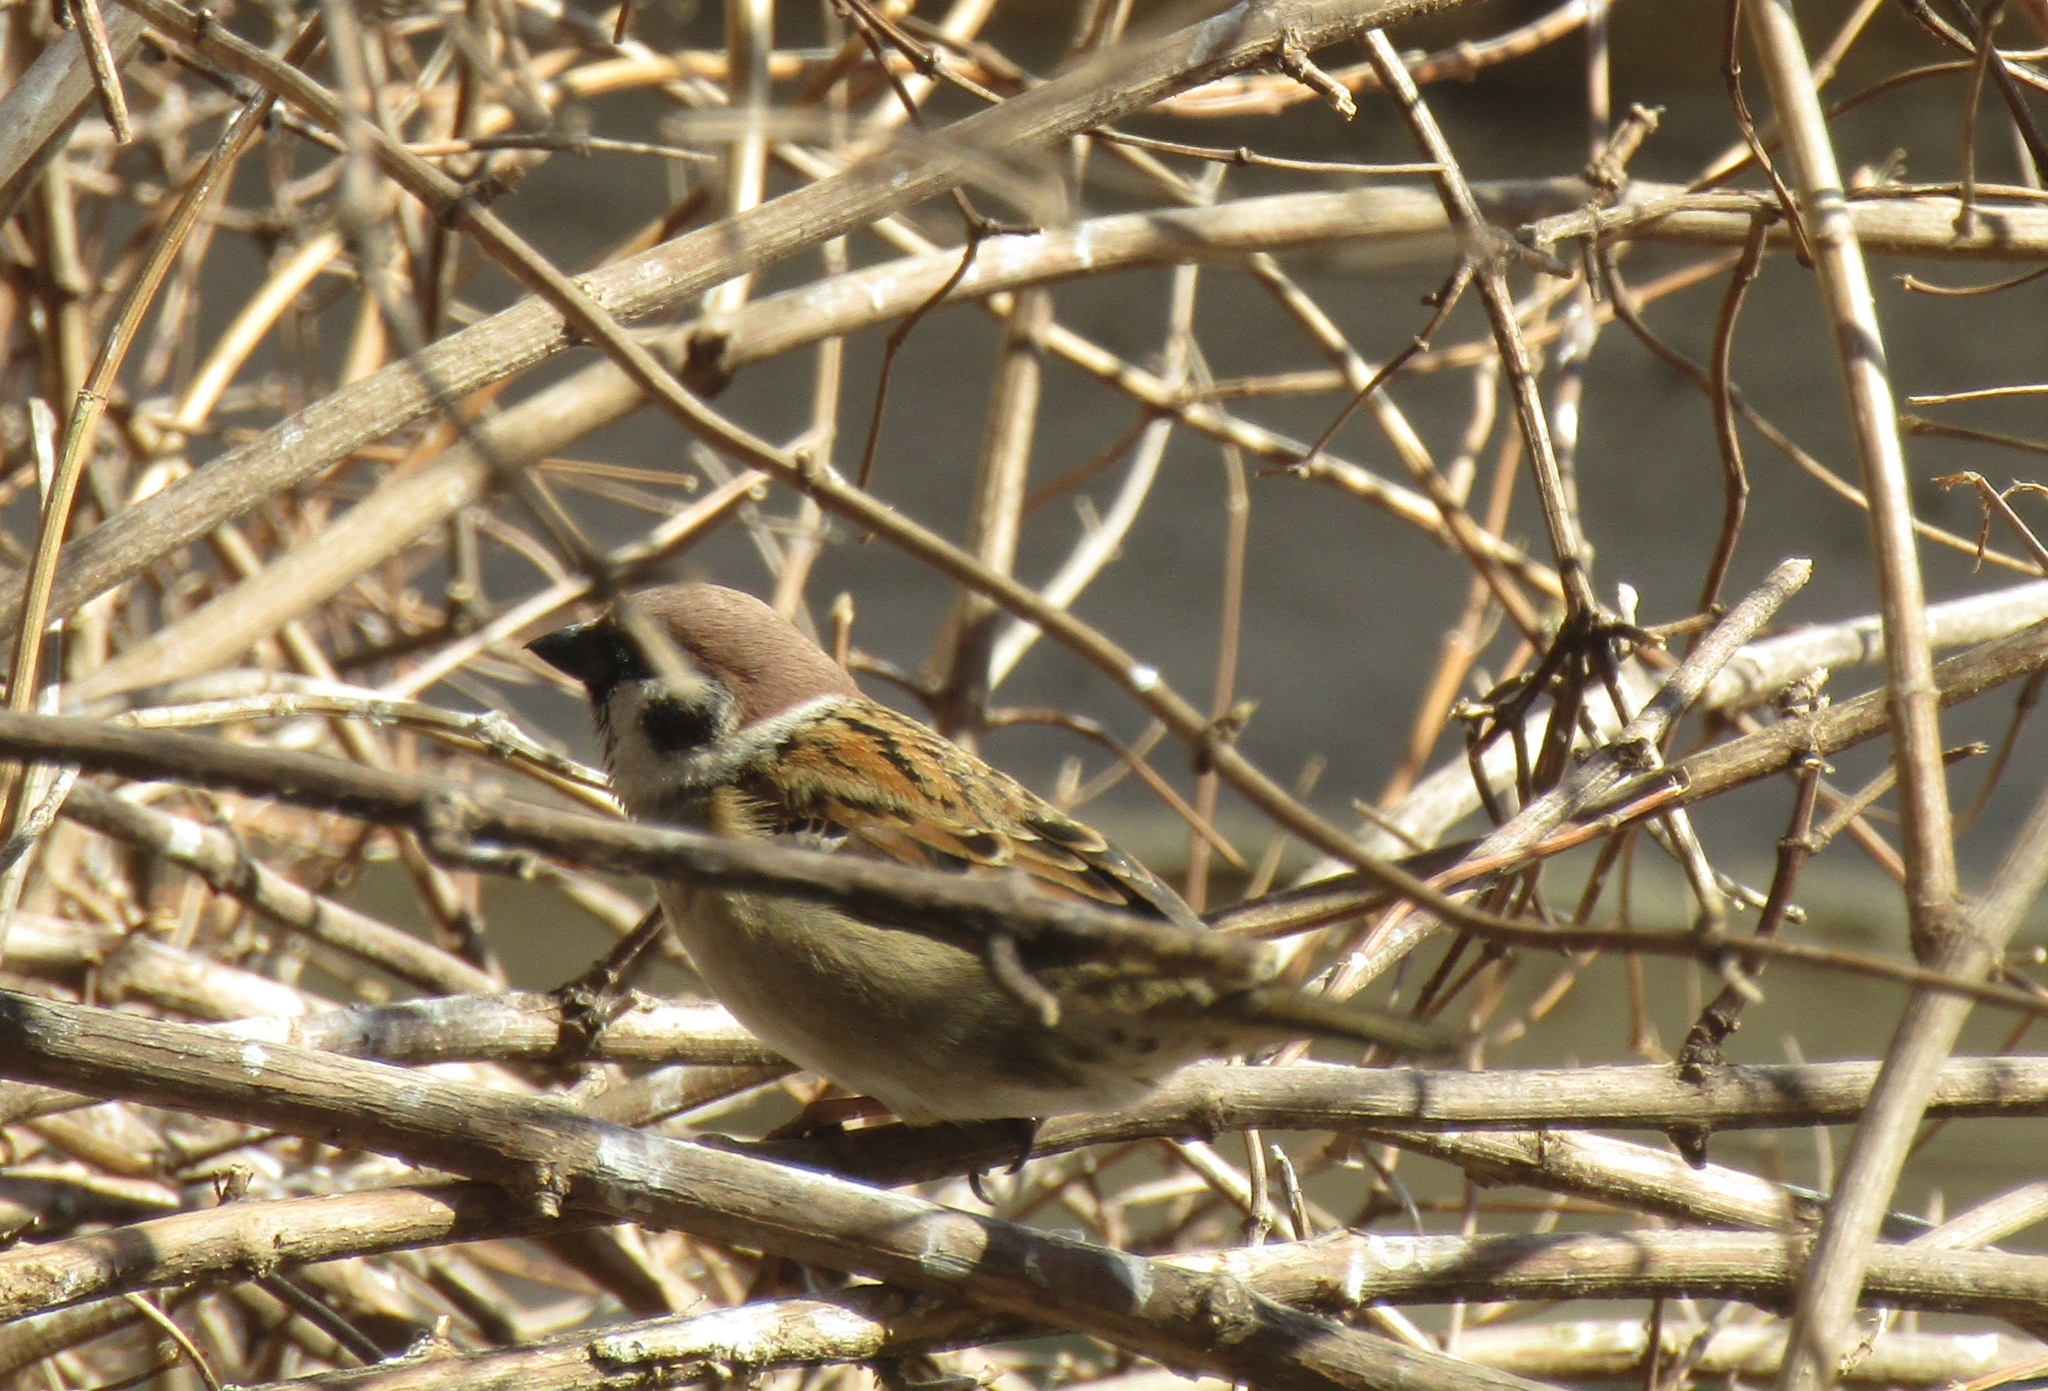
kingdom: Animalia
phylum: Chordata
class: Aves
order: Passeriformes
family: Passeridae
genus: Passer
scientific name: Passer montanus
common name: Eurasian tree sparrow
